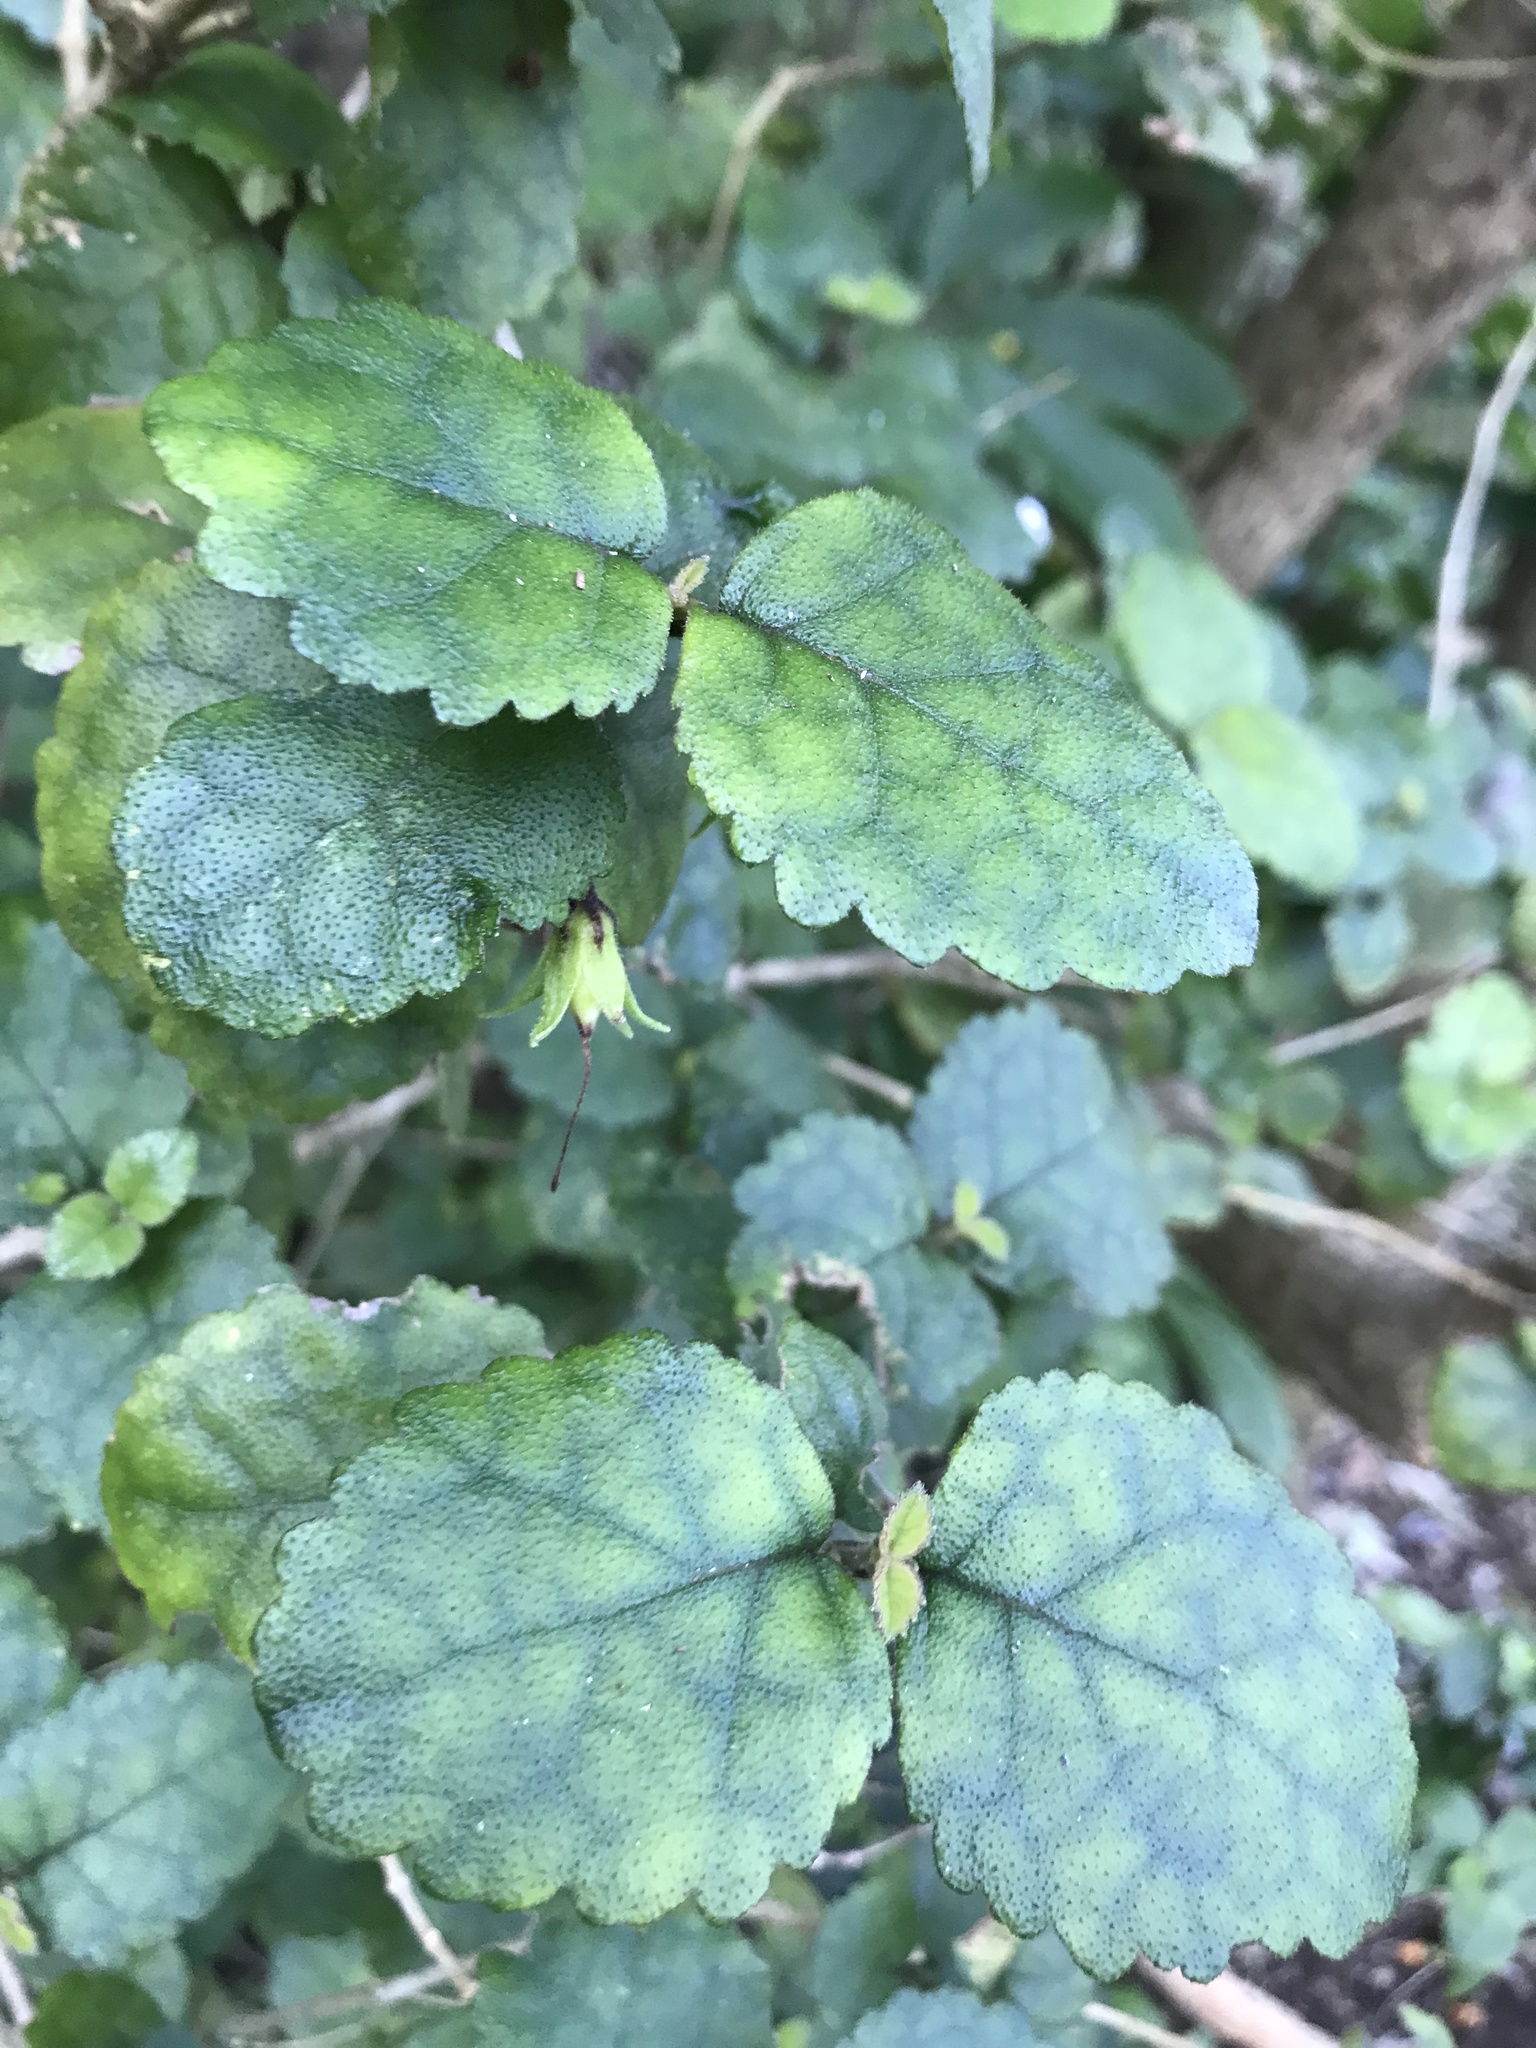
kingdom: Plantae
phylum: Tracheophyta
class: Magnoliopsida
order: Lamiales
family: Gesneriaceae
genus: Rhabdothamnus
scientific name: Rhabdothamnus solandri
